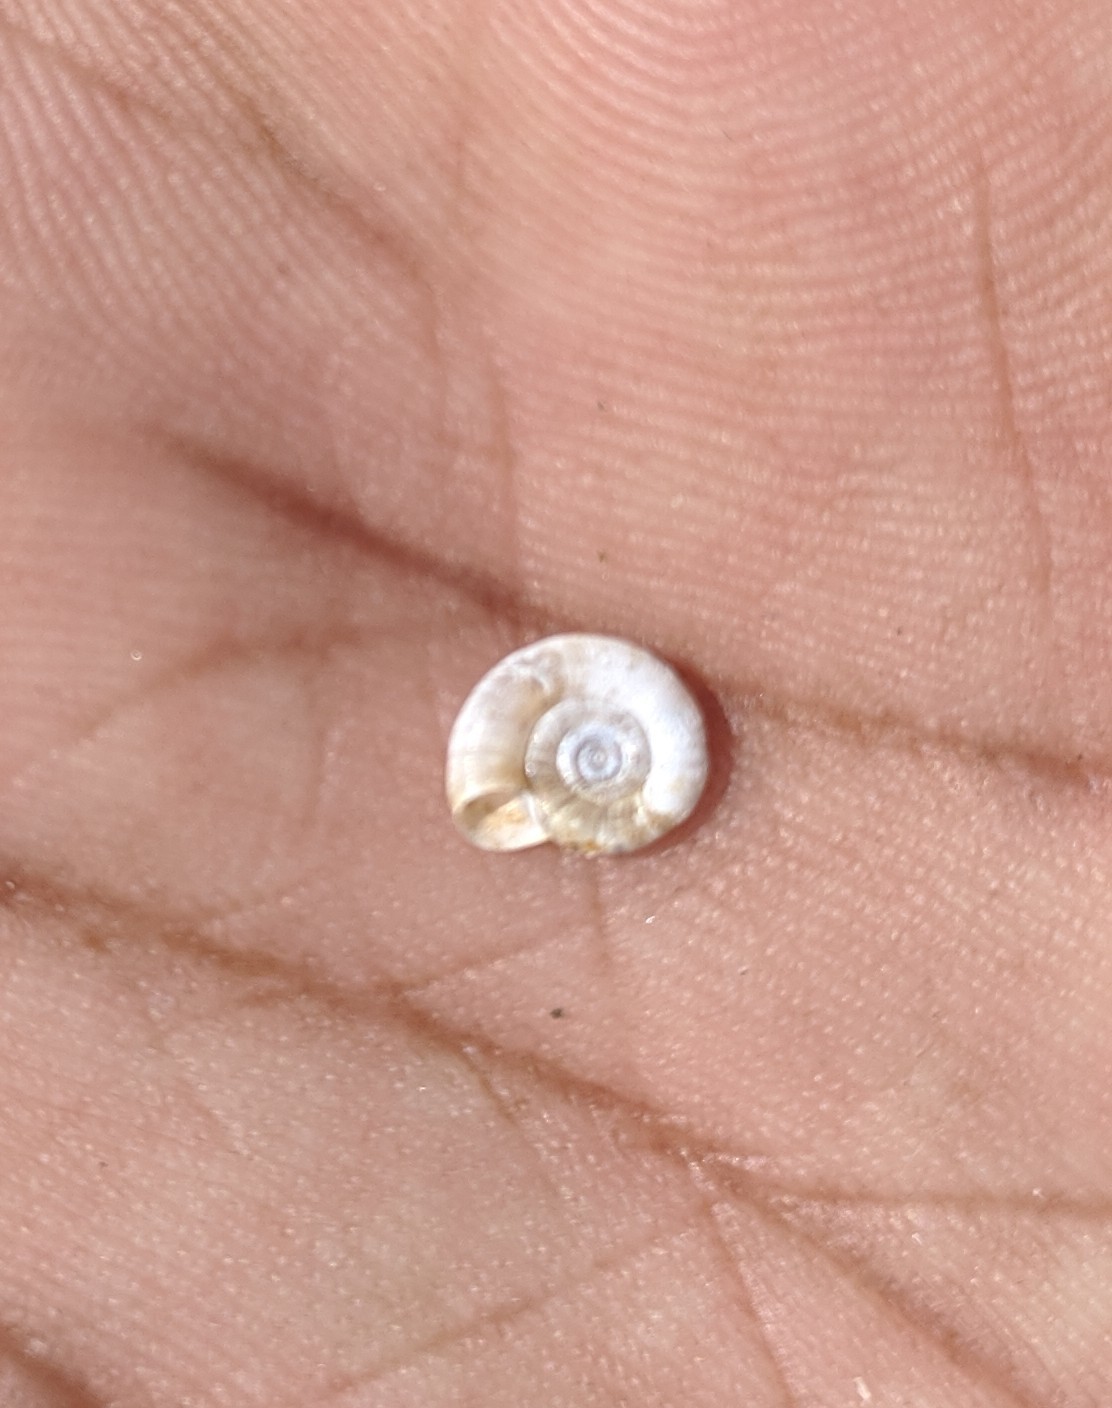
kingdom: Animalia
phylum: Mollusca
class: Gastropoda
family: Planorbidae
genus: Gyraulus
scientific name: Gyraulus chinensis
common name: Chinese ram's-horn snail
